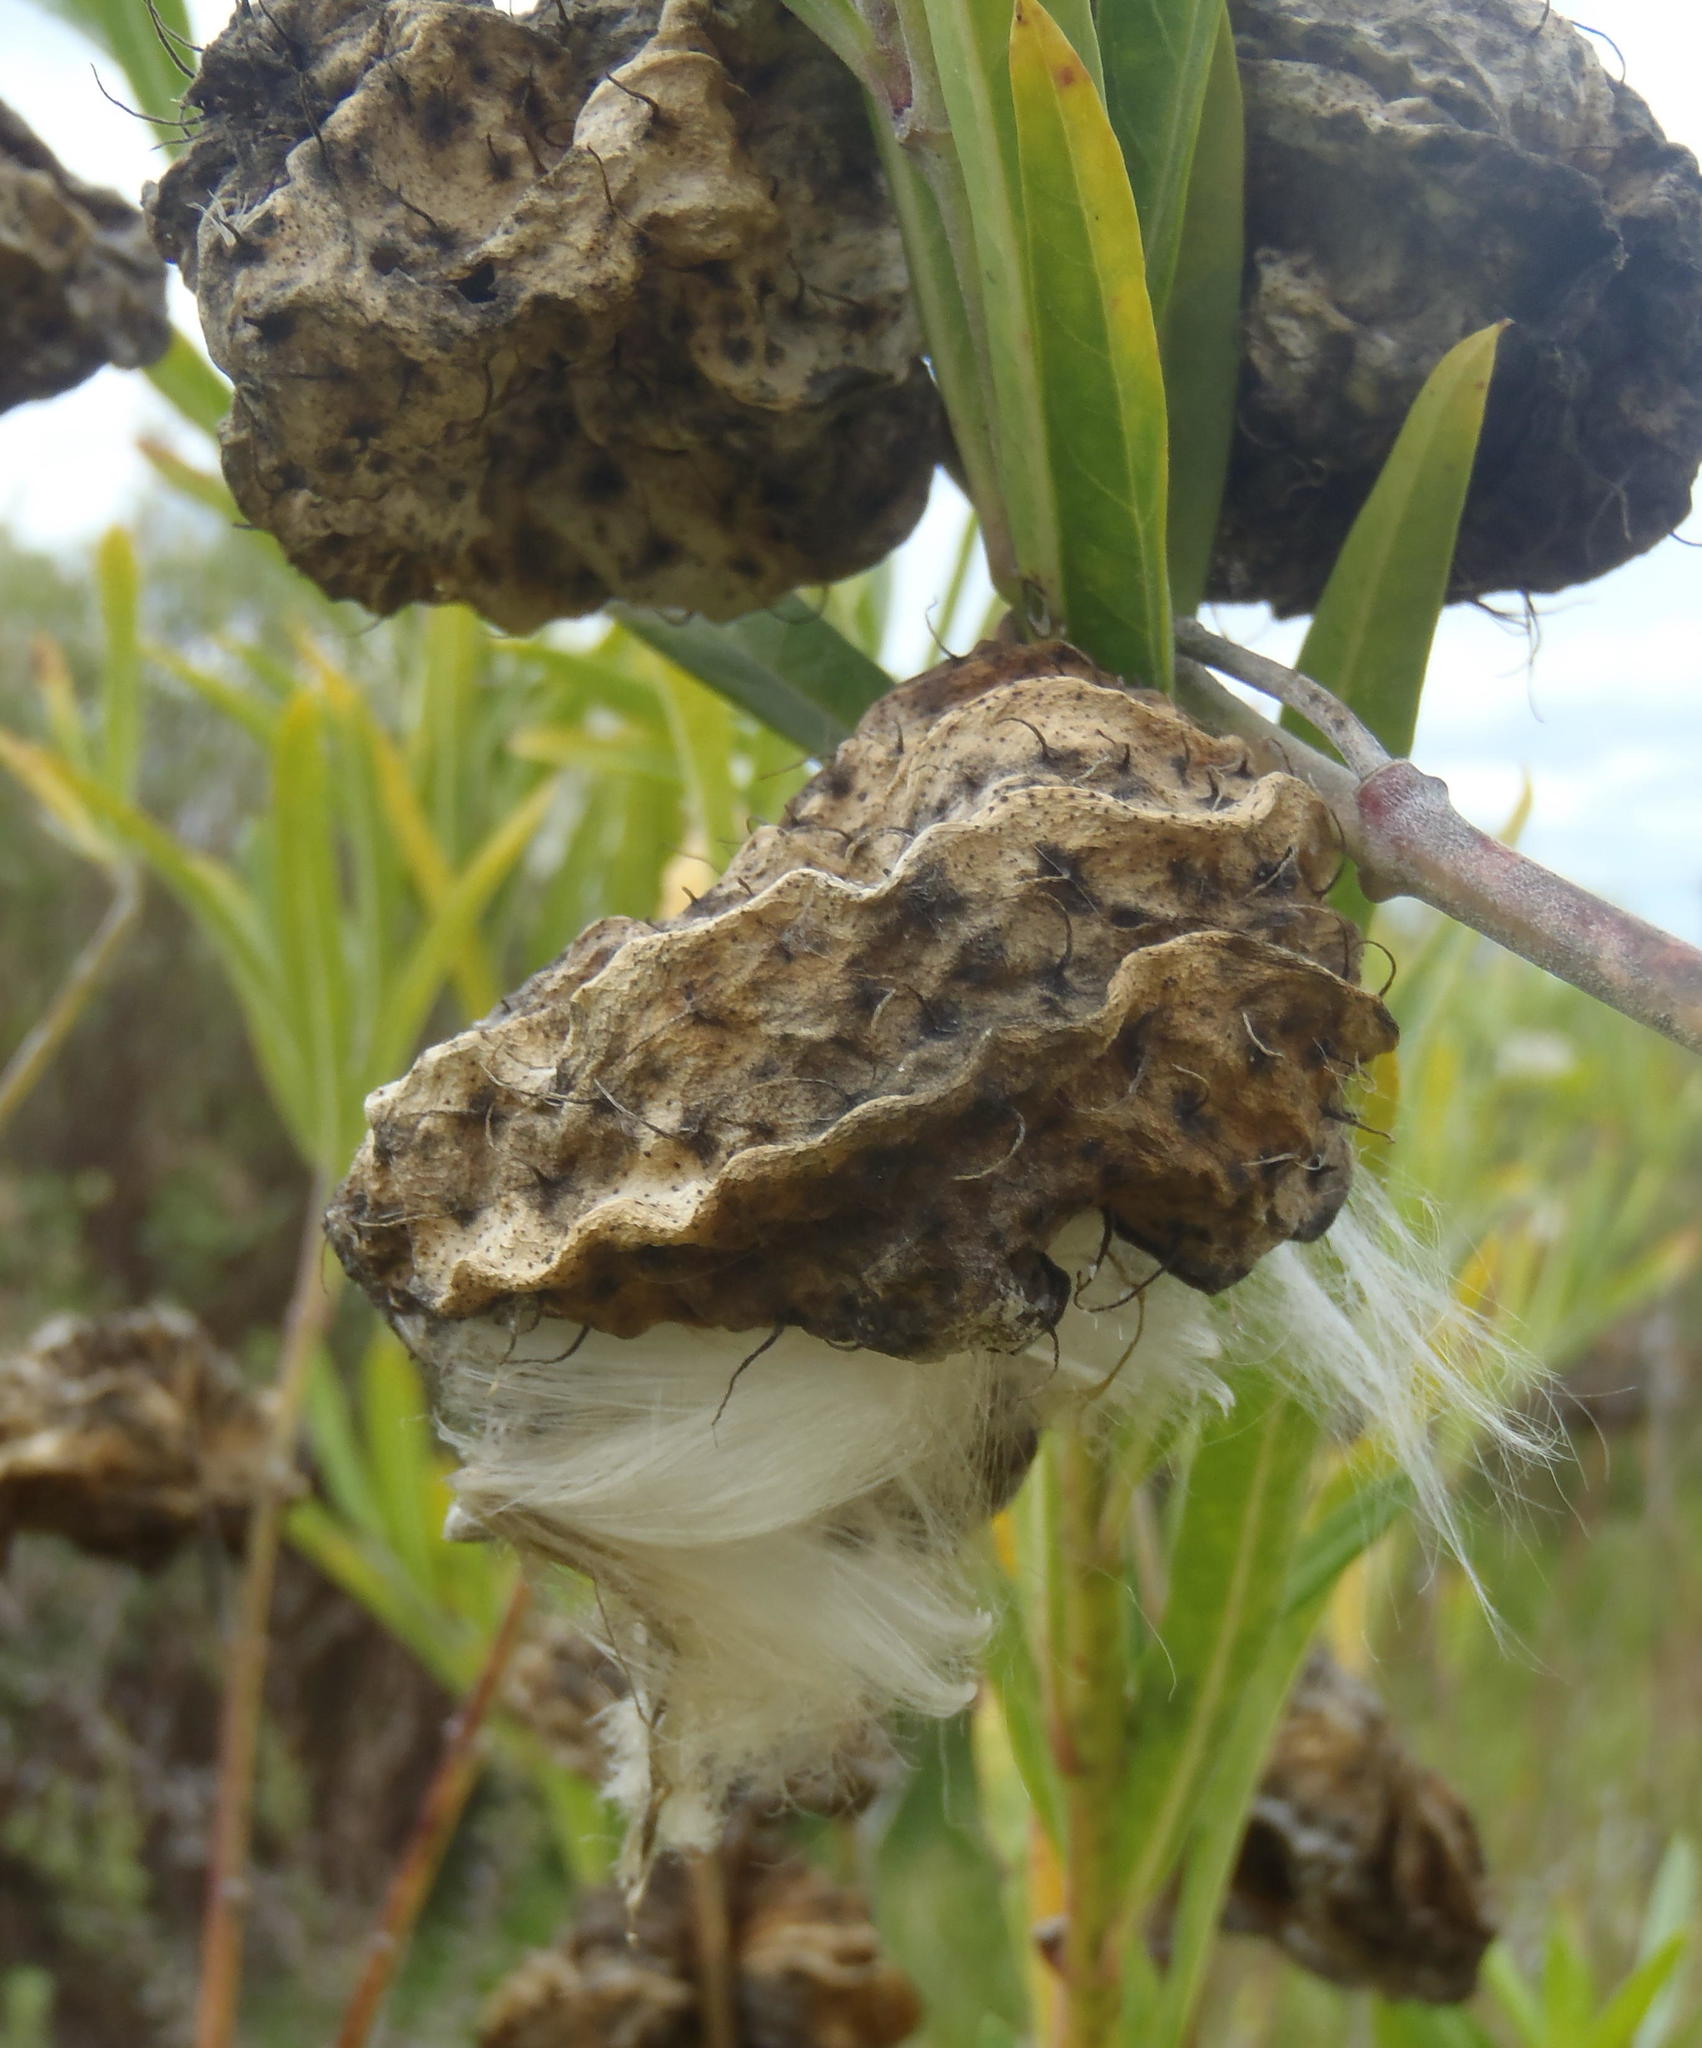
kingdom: Plantae
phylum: Tracheophyta
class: Magnoliopsida
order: Gentianales
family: Apocynaceae
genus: Gomphocarpus
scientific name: Gomphocarpus physocarpus
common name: Balloon cotton bush
